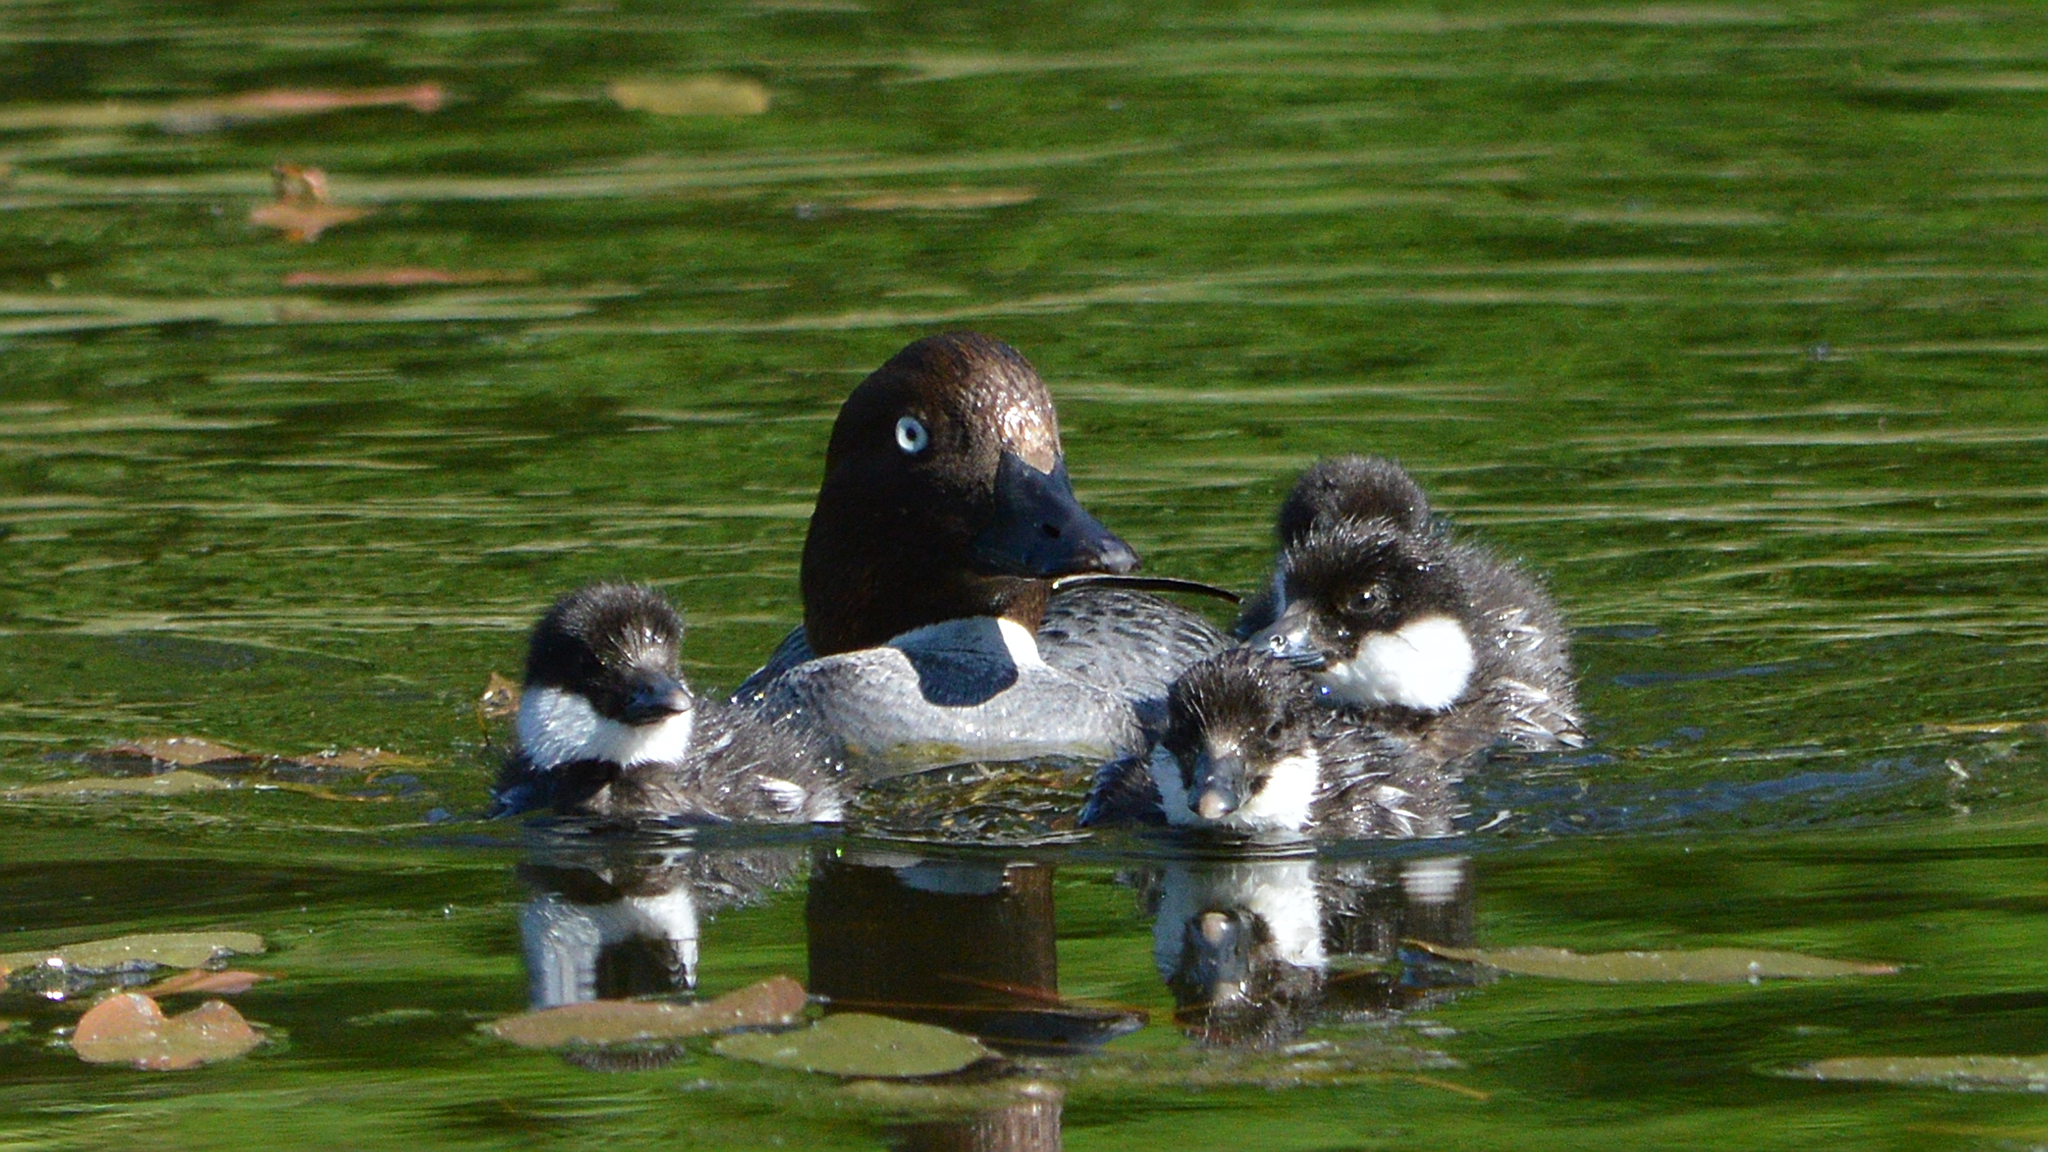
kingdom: Animalia
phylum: Chordata
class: Aves
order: Anseriformes
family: Anatidae
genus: Bucephala
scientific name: Bucephala clangula
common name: Common goldeneye
